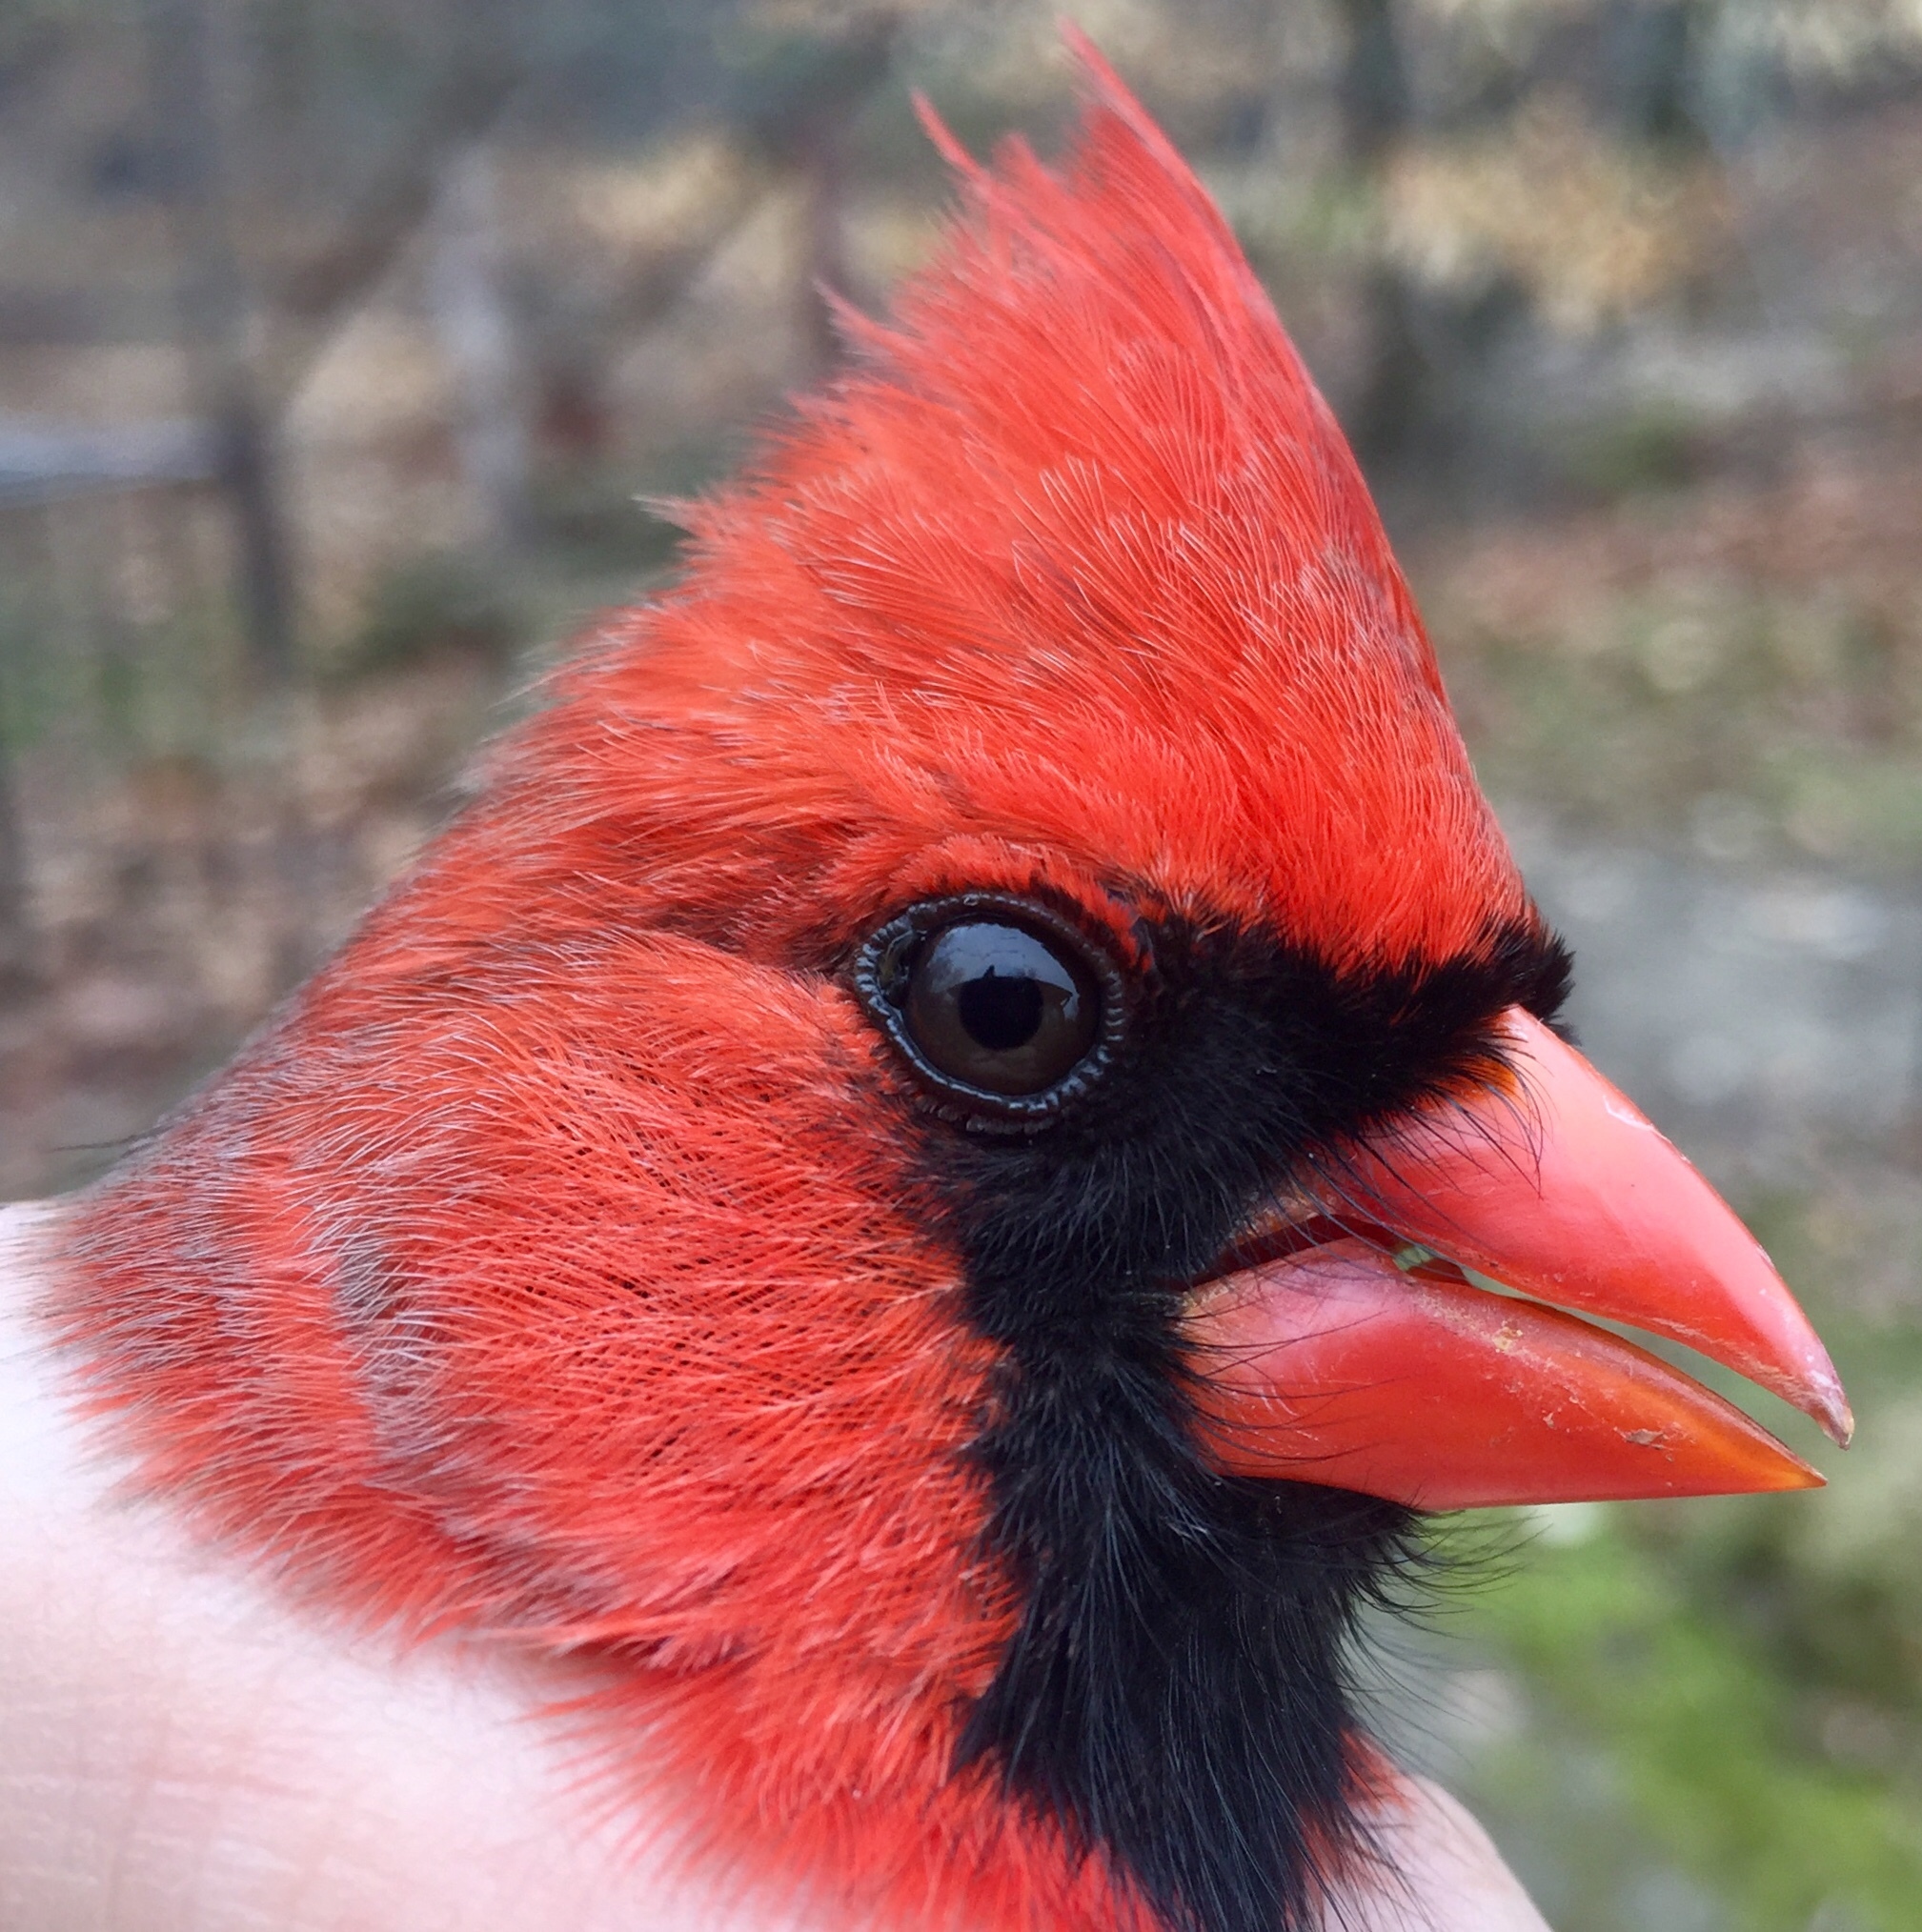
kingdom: Animalia
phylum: Chordata
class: Aves
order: Passeriformes
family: Cardinalidae
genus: Cardinalis
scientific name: Cardinalis cardinalis
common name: Northern cardinal
